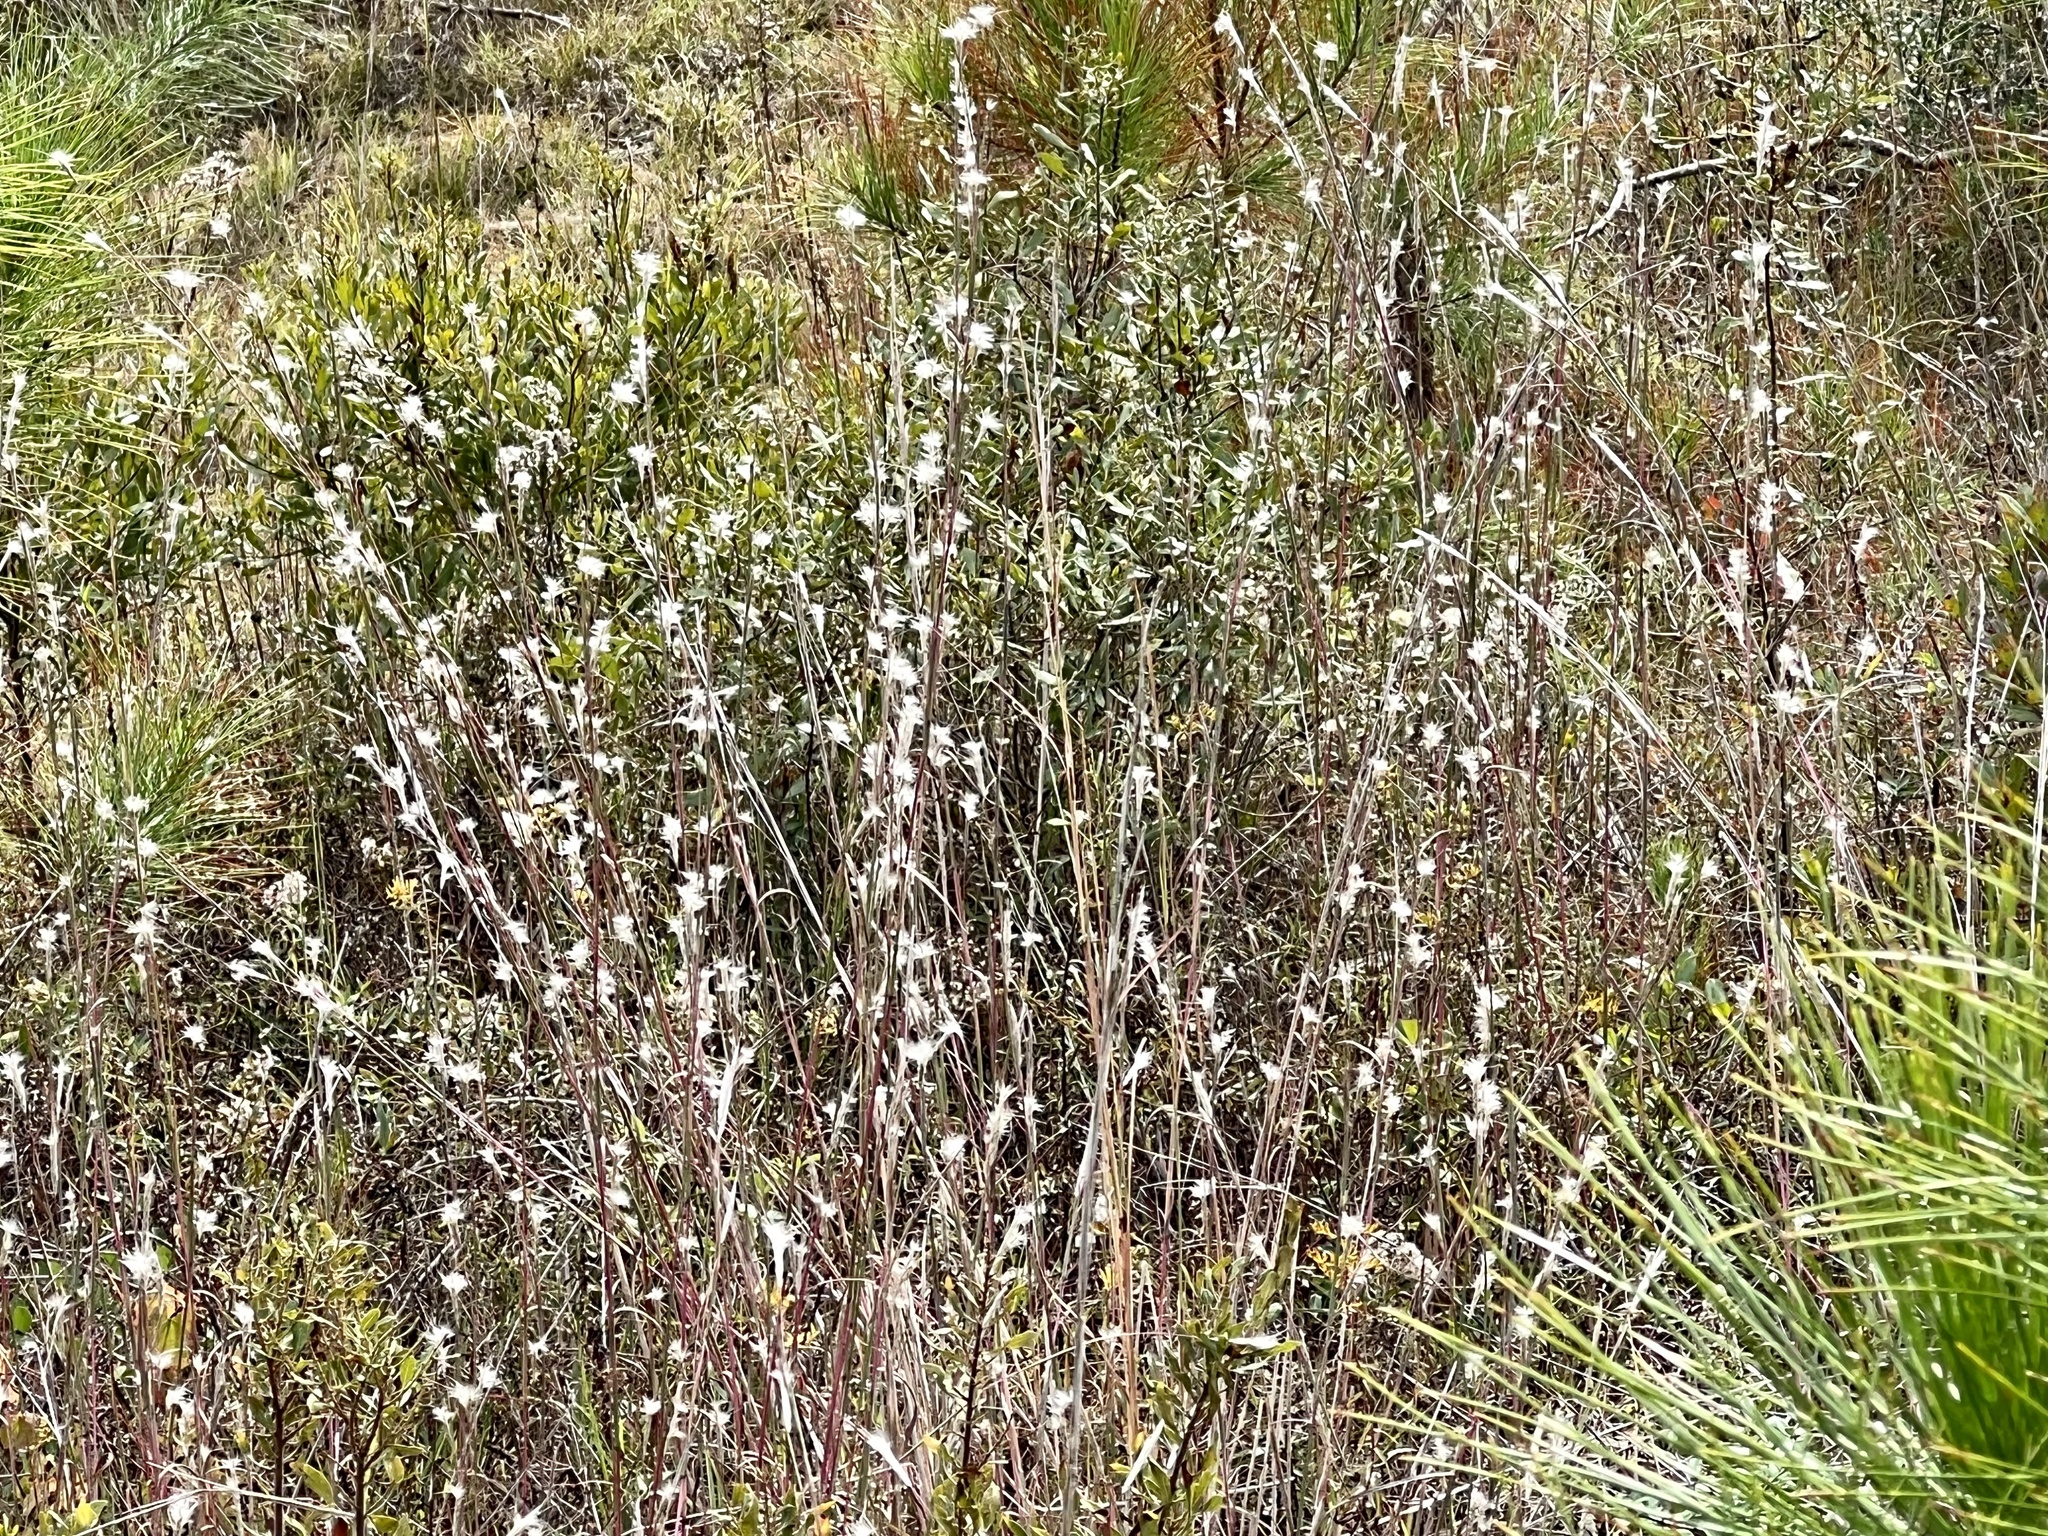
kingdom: Plantae
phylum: Tracheophyta
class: Liliopsida
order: Poales
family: Poaceae
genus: Andropogon
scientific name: Andropogon ternarius
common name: Split bluestem
